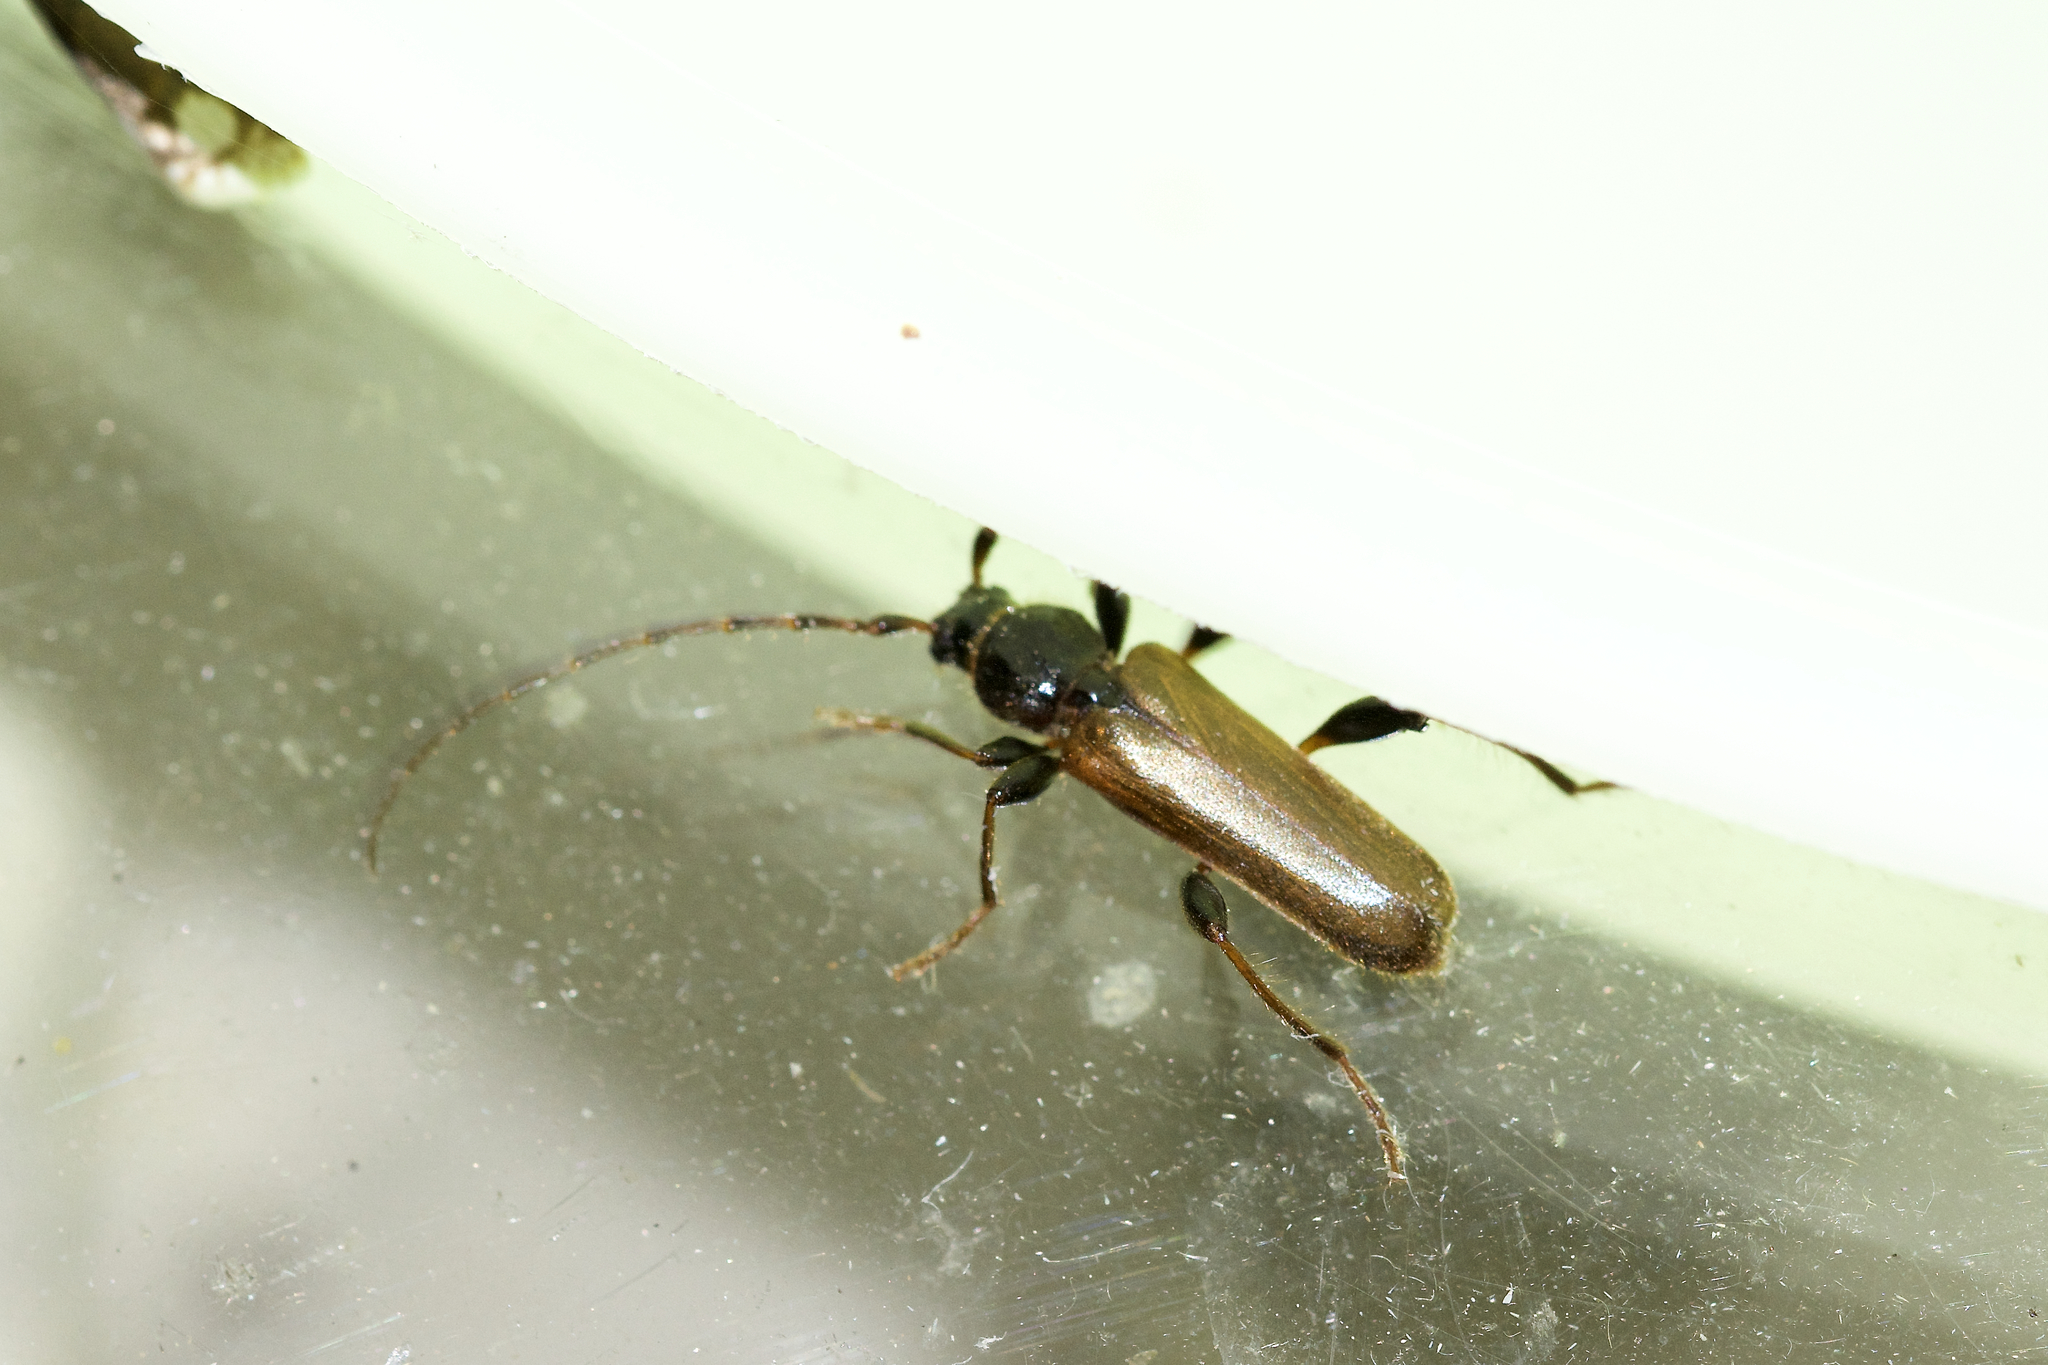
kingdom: Animalia
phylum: Arthropoda
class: Insecta
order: Coleoptera
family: Cerambycidae
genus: Phymatodes
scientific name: Phymatodes testaceus
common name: Long-horned beetle
